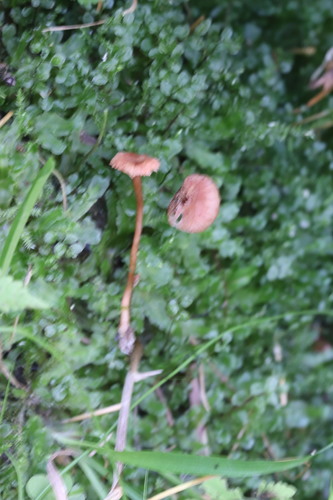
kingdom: Fungi
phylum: Basidiomycota
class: Agaricomycetes
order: Agaricales
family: Hydnangiaceae
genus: Laccaria
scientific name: Laccaria laccata
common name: Deceiver
